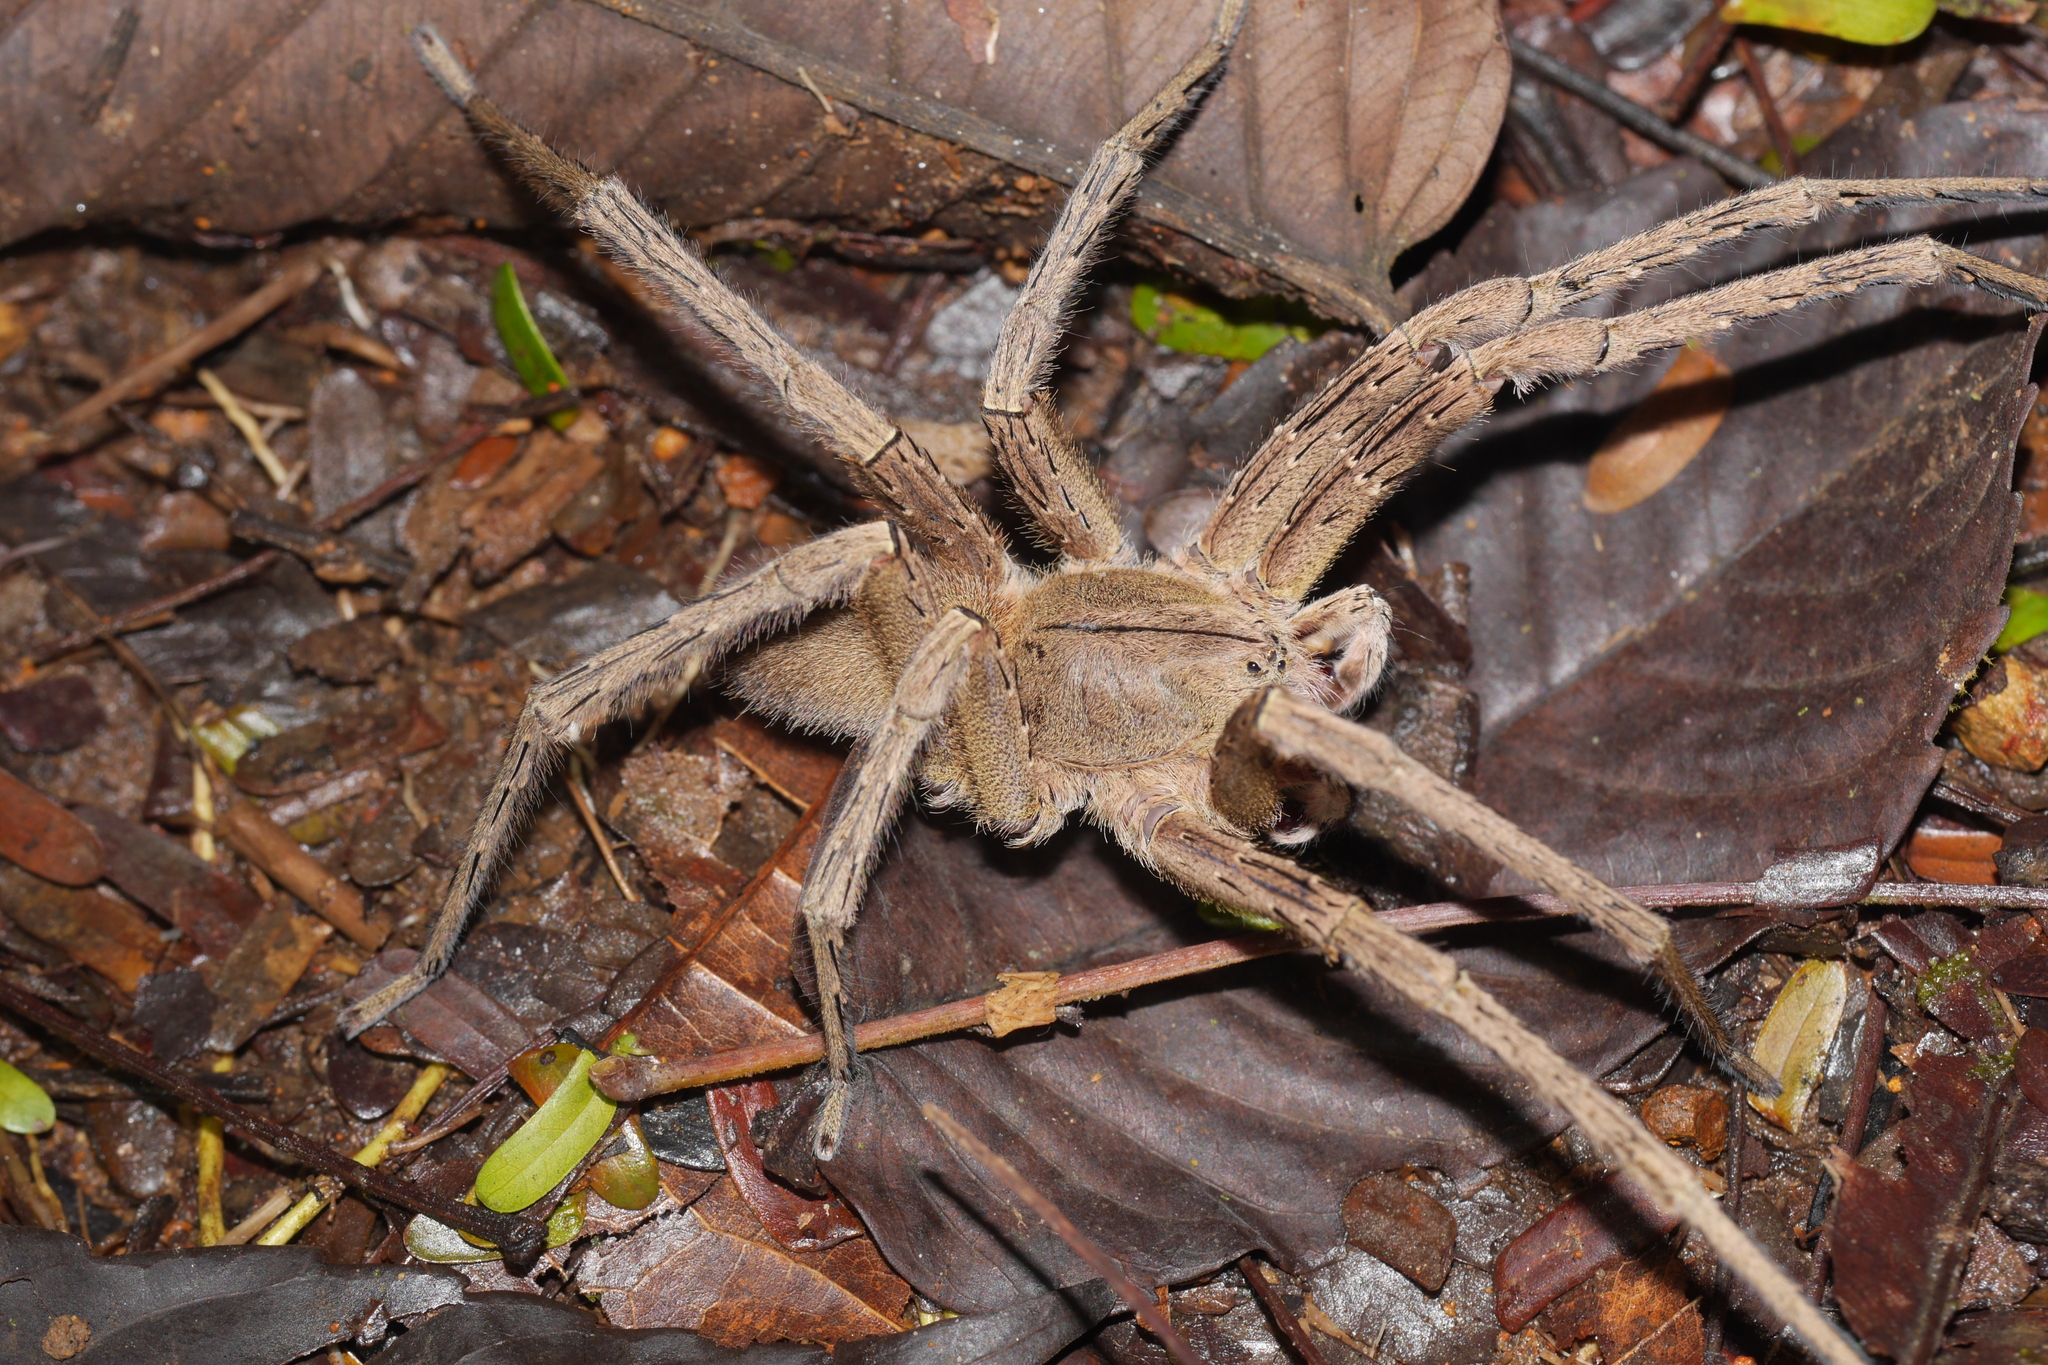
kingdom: Animalia
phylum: Arthropoda
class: Arachnida
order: Araneae
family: Ctenidae
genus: Phoneutria
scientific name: Phoneutria depilata
